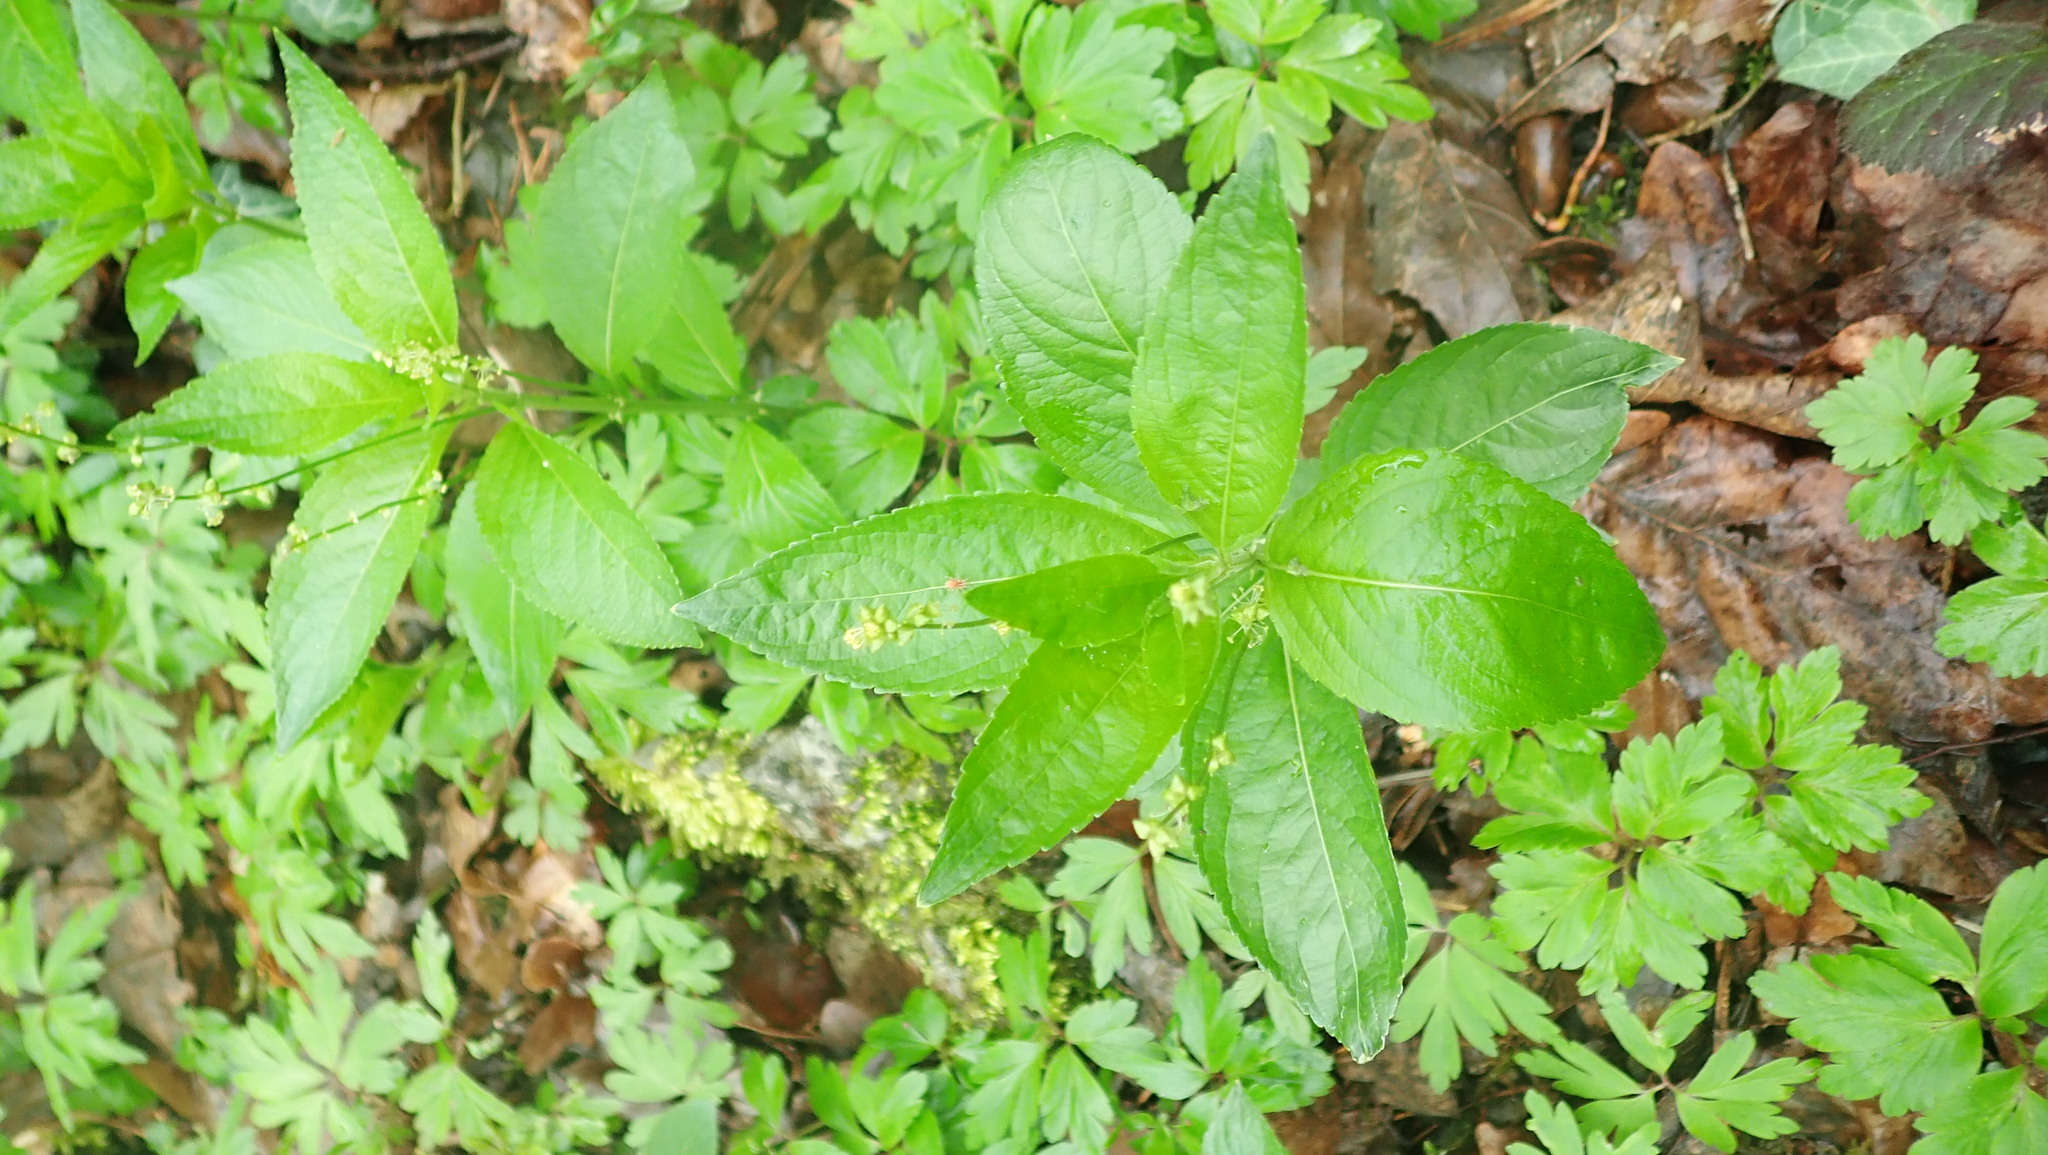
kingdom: Plantae
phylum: Tracheophyta
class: Magnoliopsida
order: Malpighiales
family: Euphorbiaceae
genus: Mercurialis
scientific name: Mercurialis perennis
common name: Dog mercury
